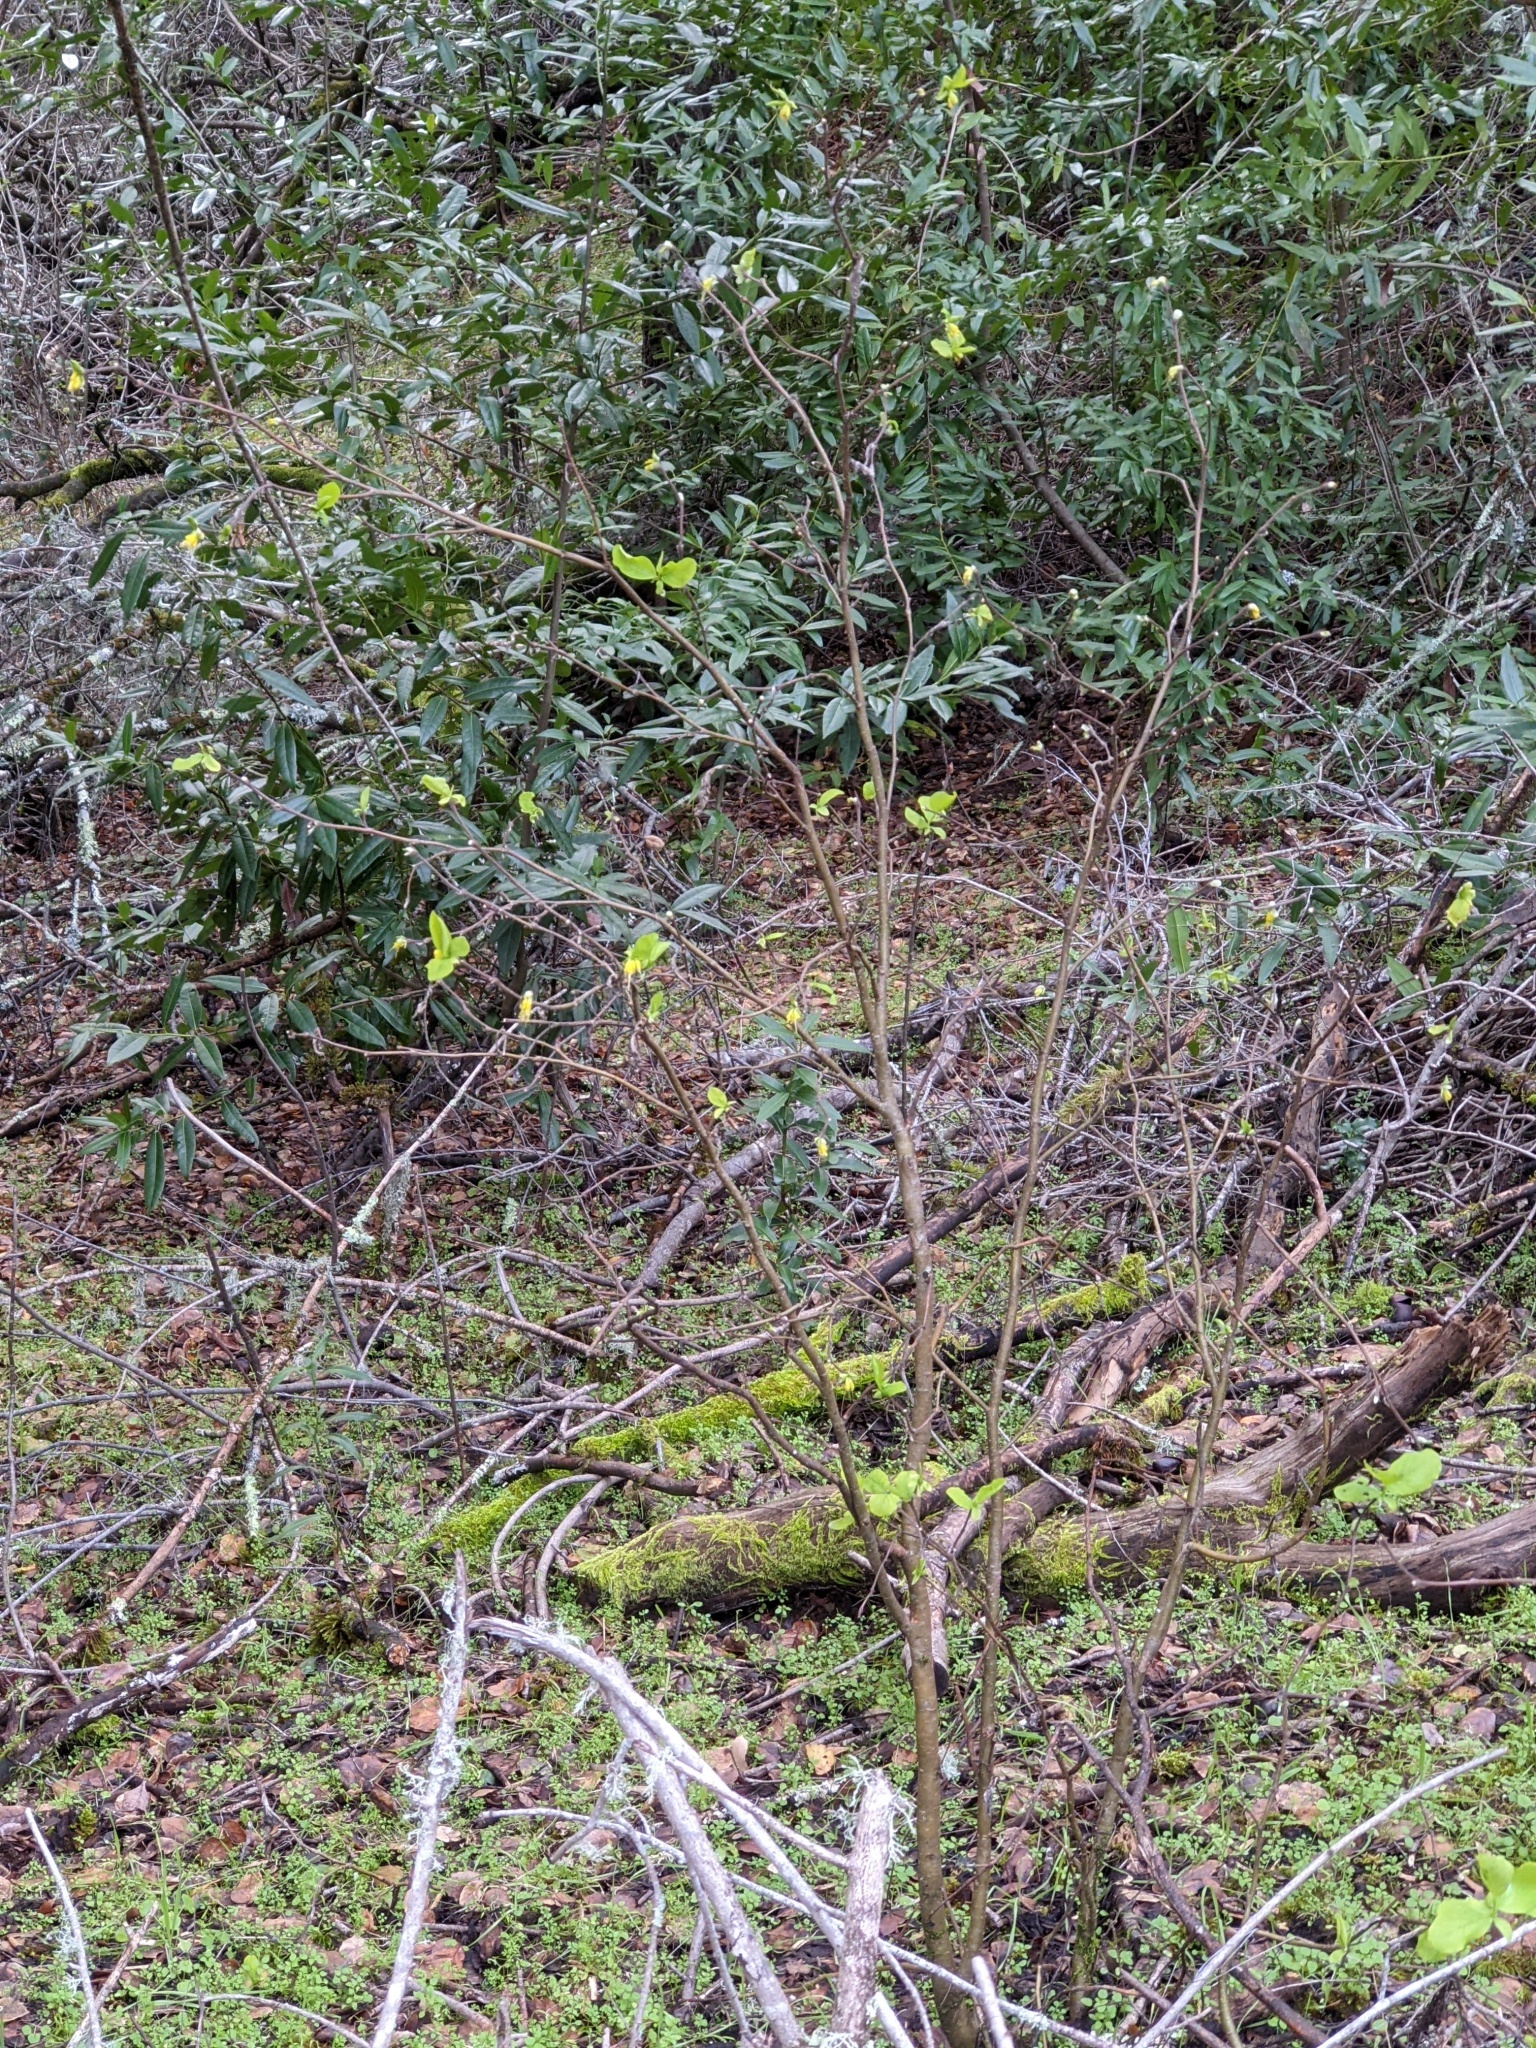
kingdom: Plantae
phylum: Tracheophyta
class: Magnoliopsida
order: Malvales
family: Thymelaeaceae
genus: Dirca
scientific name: Dirca occidentalis
